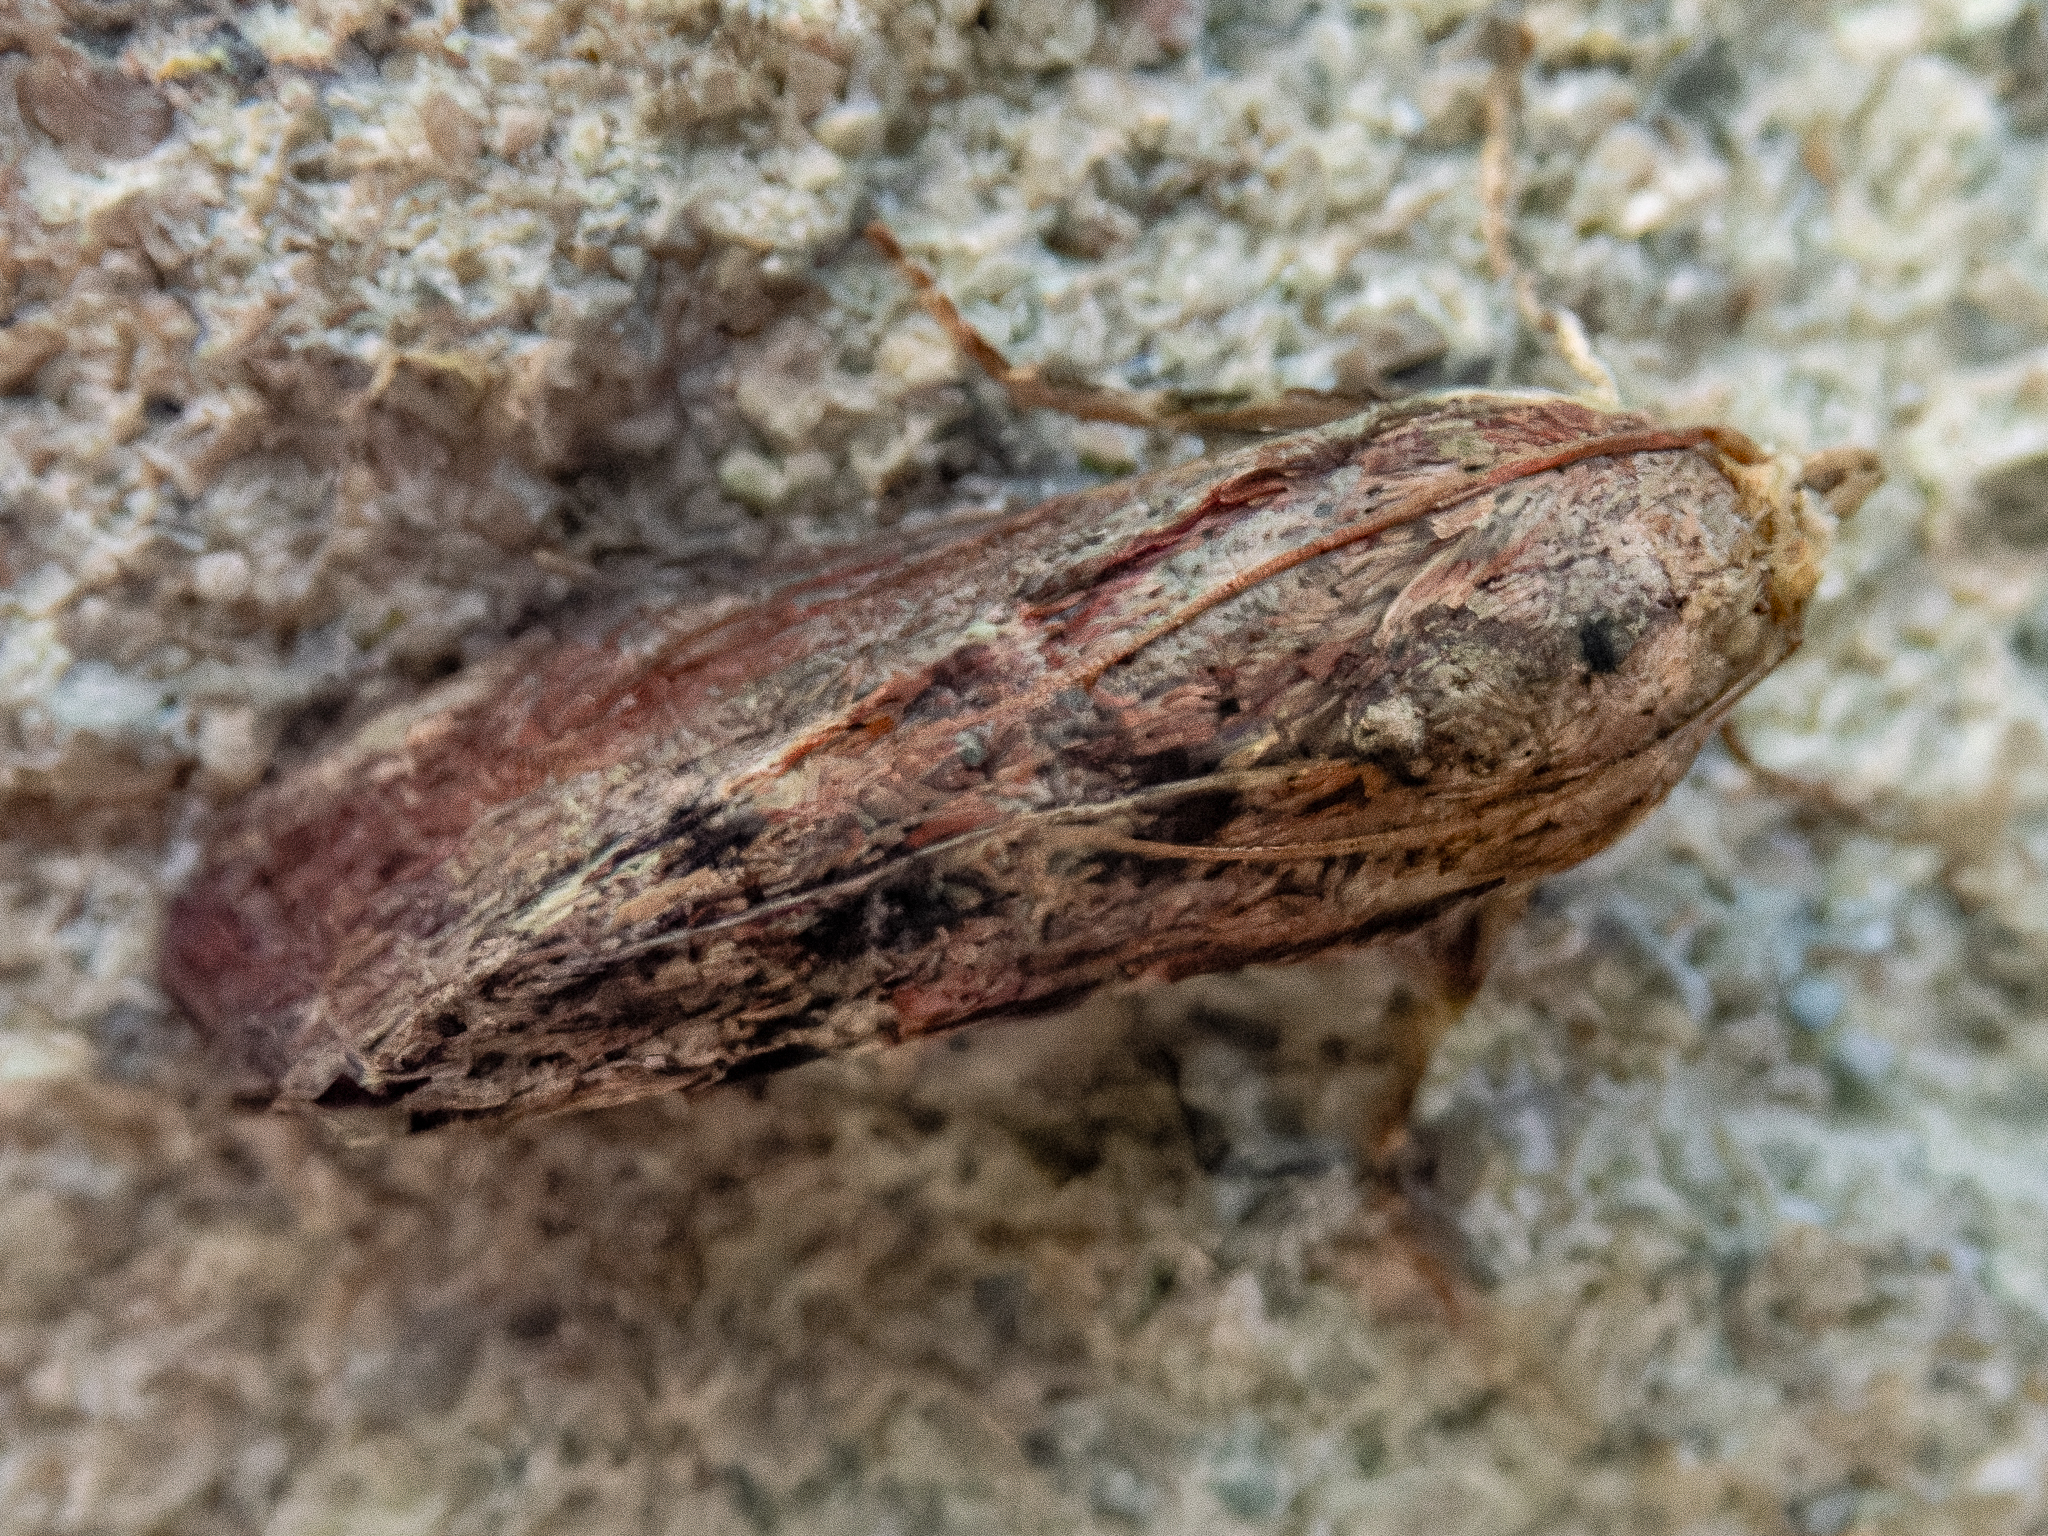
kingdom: Animalia
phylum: Arthropoda
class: Insecta
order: Lepidoptera
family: Pyralidae
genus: Galleria
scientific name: Galleria mellonella
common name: Greater wax moth
